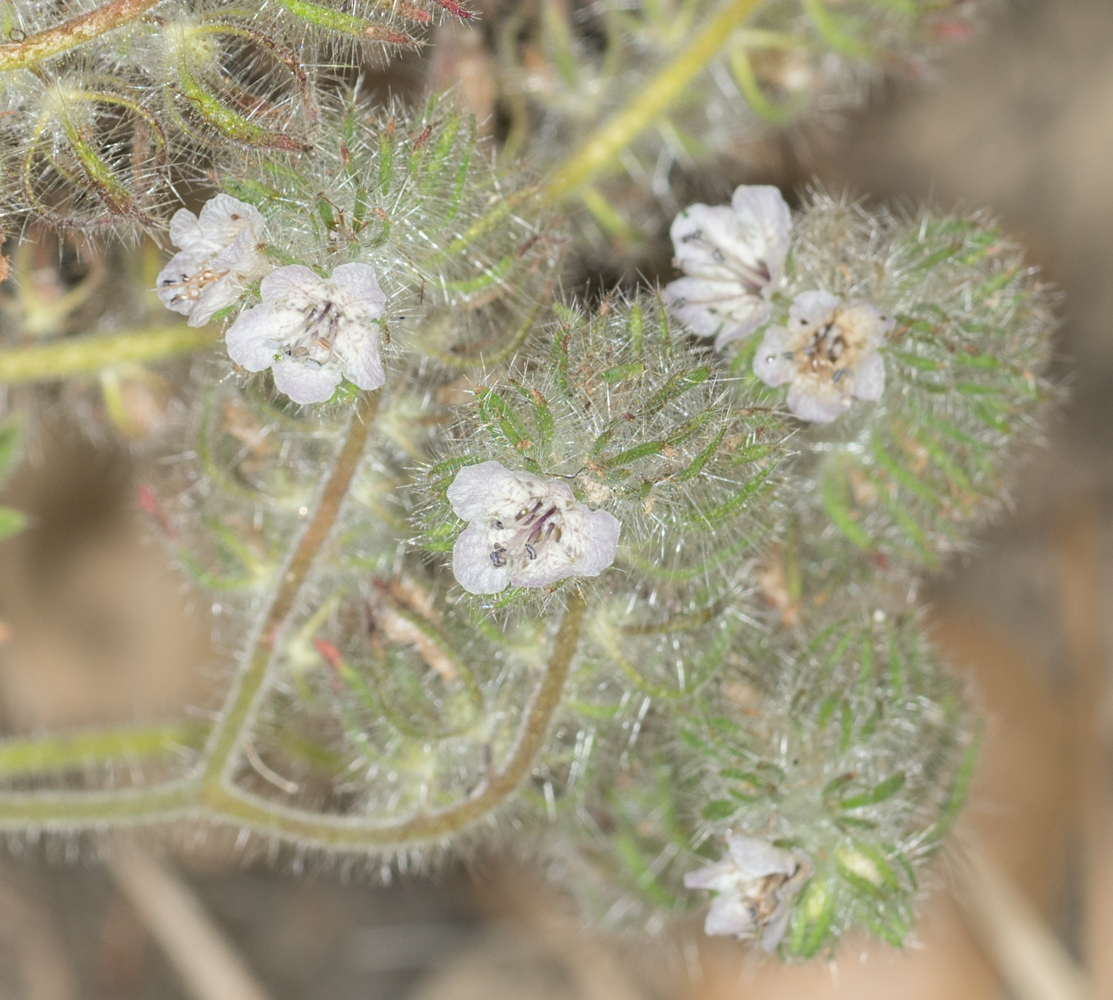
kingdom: Plantae
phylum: Tracheophyta
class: Magnoliopsida
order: Boraginales
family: Hydrophyllaceae
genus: Phacelia
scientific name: Phacelia cicutaria
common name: Caterpillar phacelia
